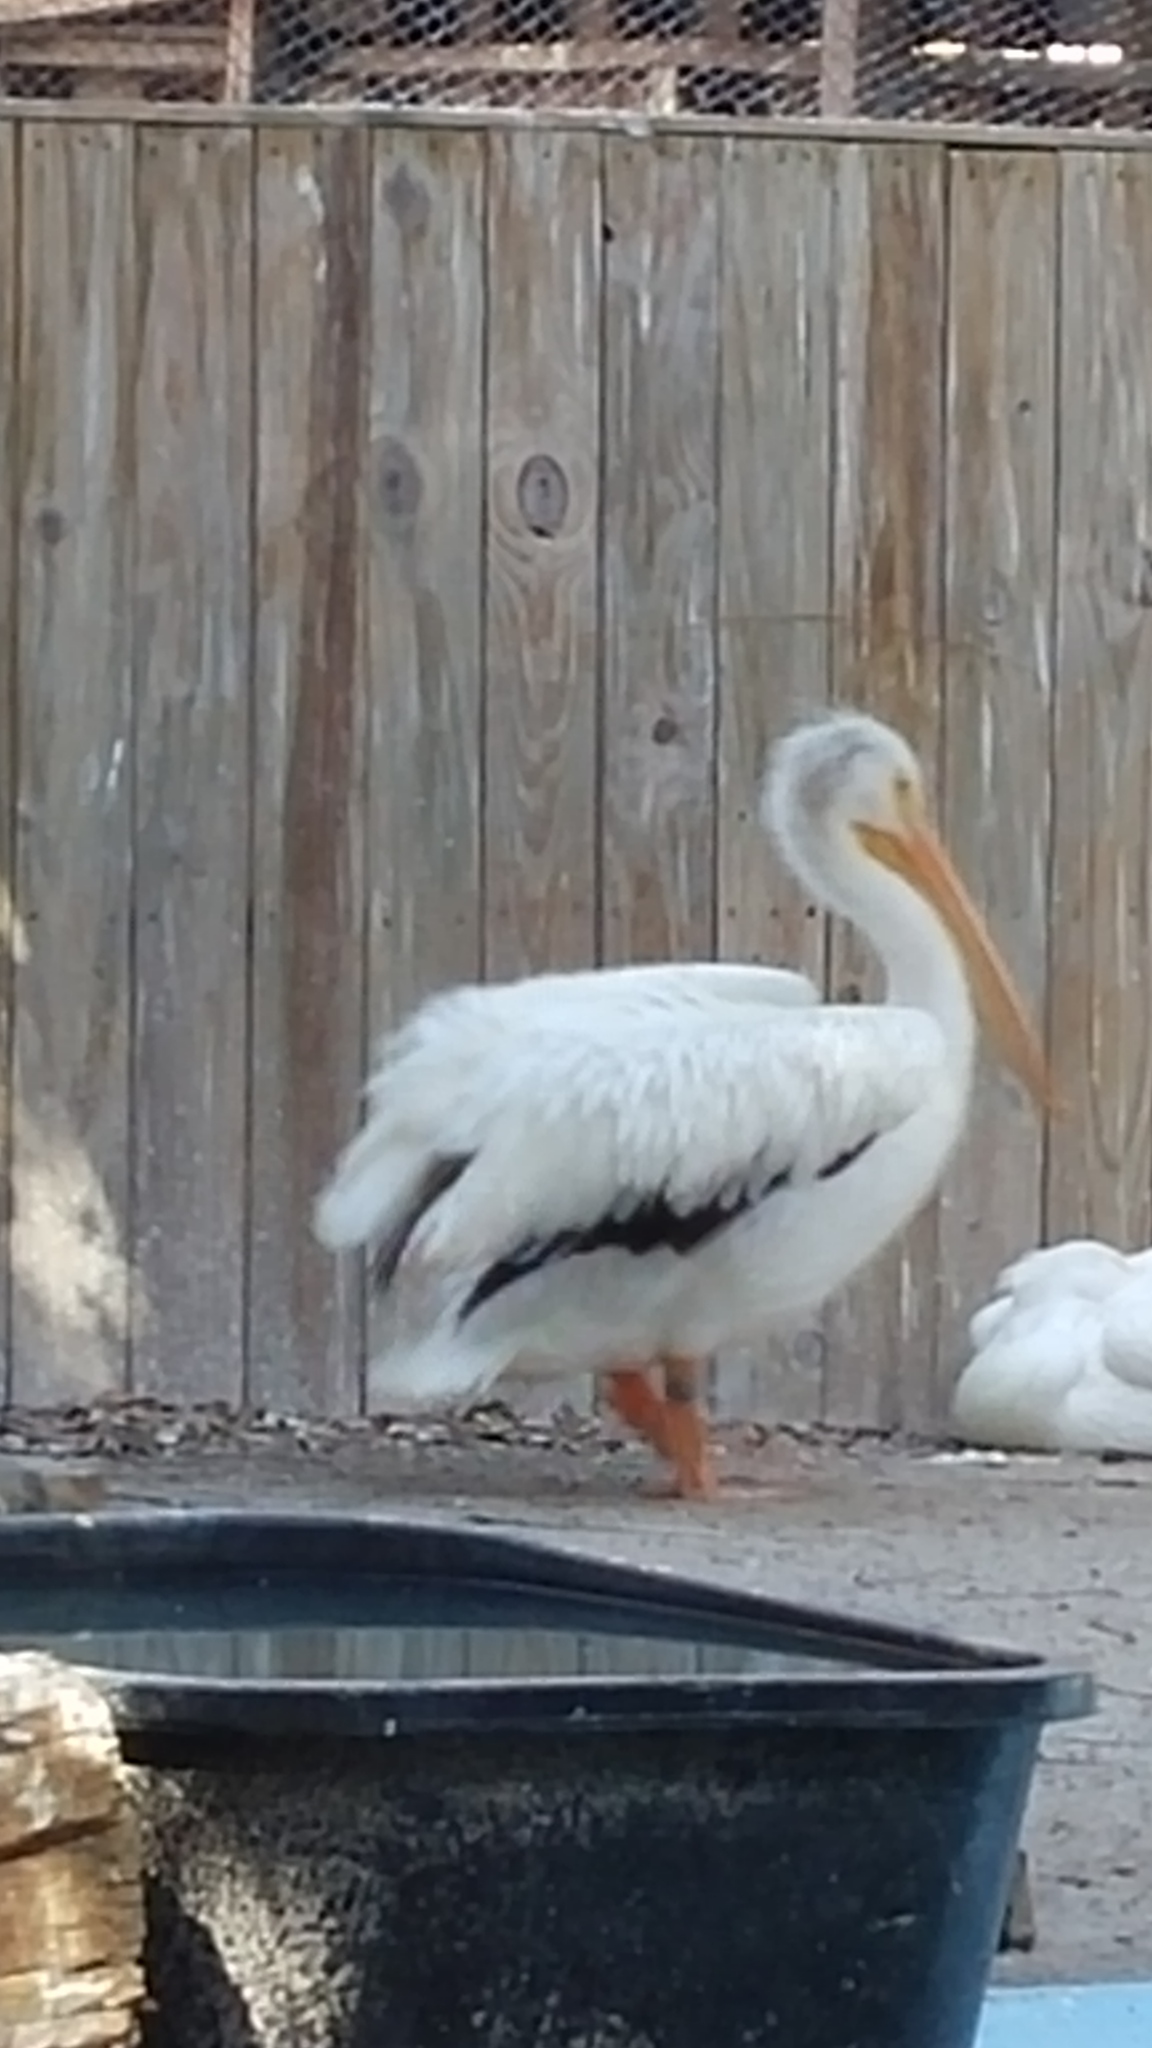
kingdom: Animalia
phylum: Chordata
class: Aves
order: Pelecaniformes
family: Pelecanidae
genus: Pelecanus
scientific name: Pelecanus erythrorhynchos
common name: American white pelican
